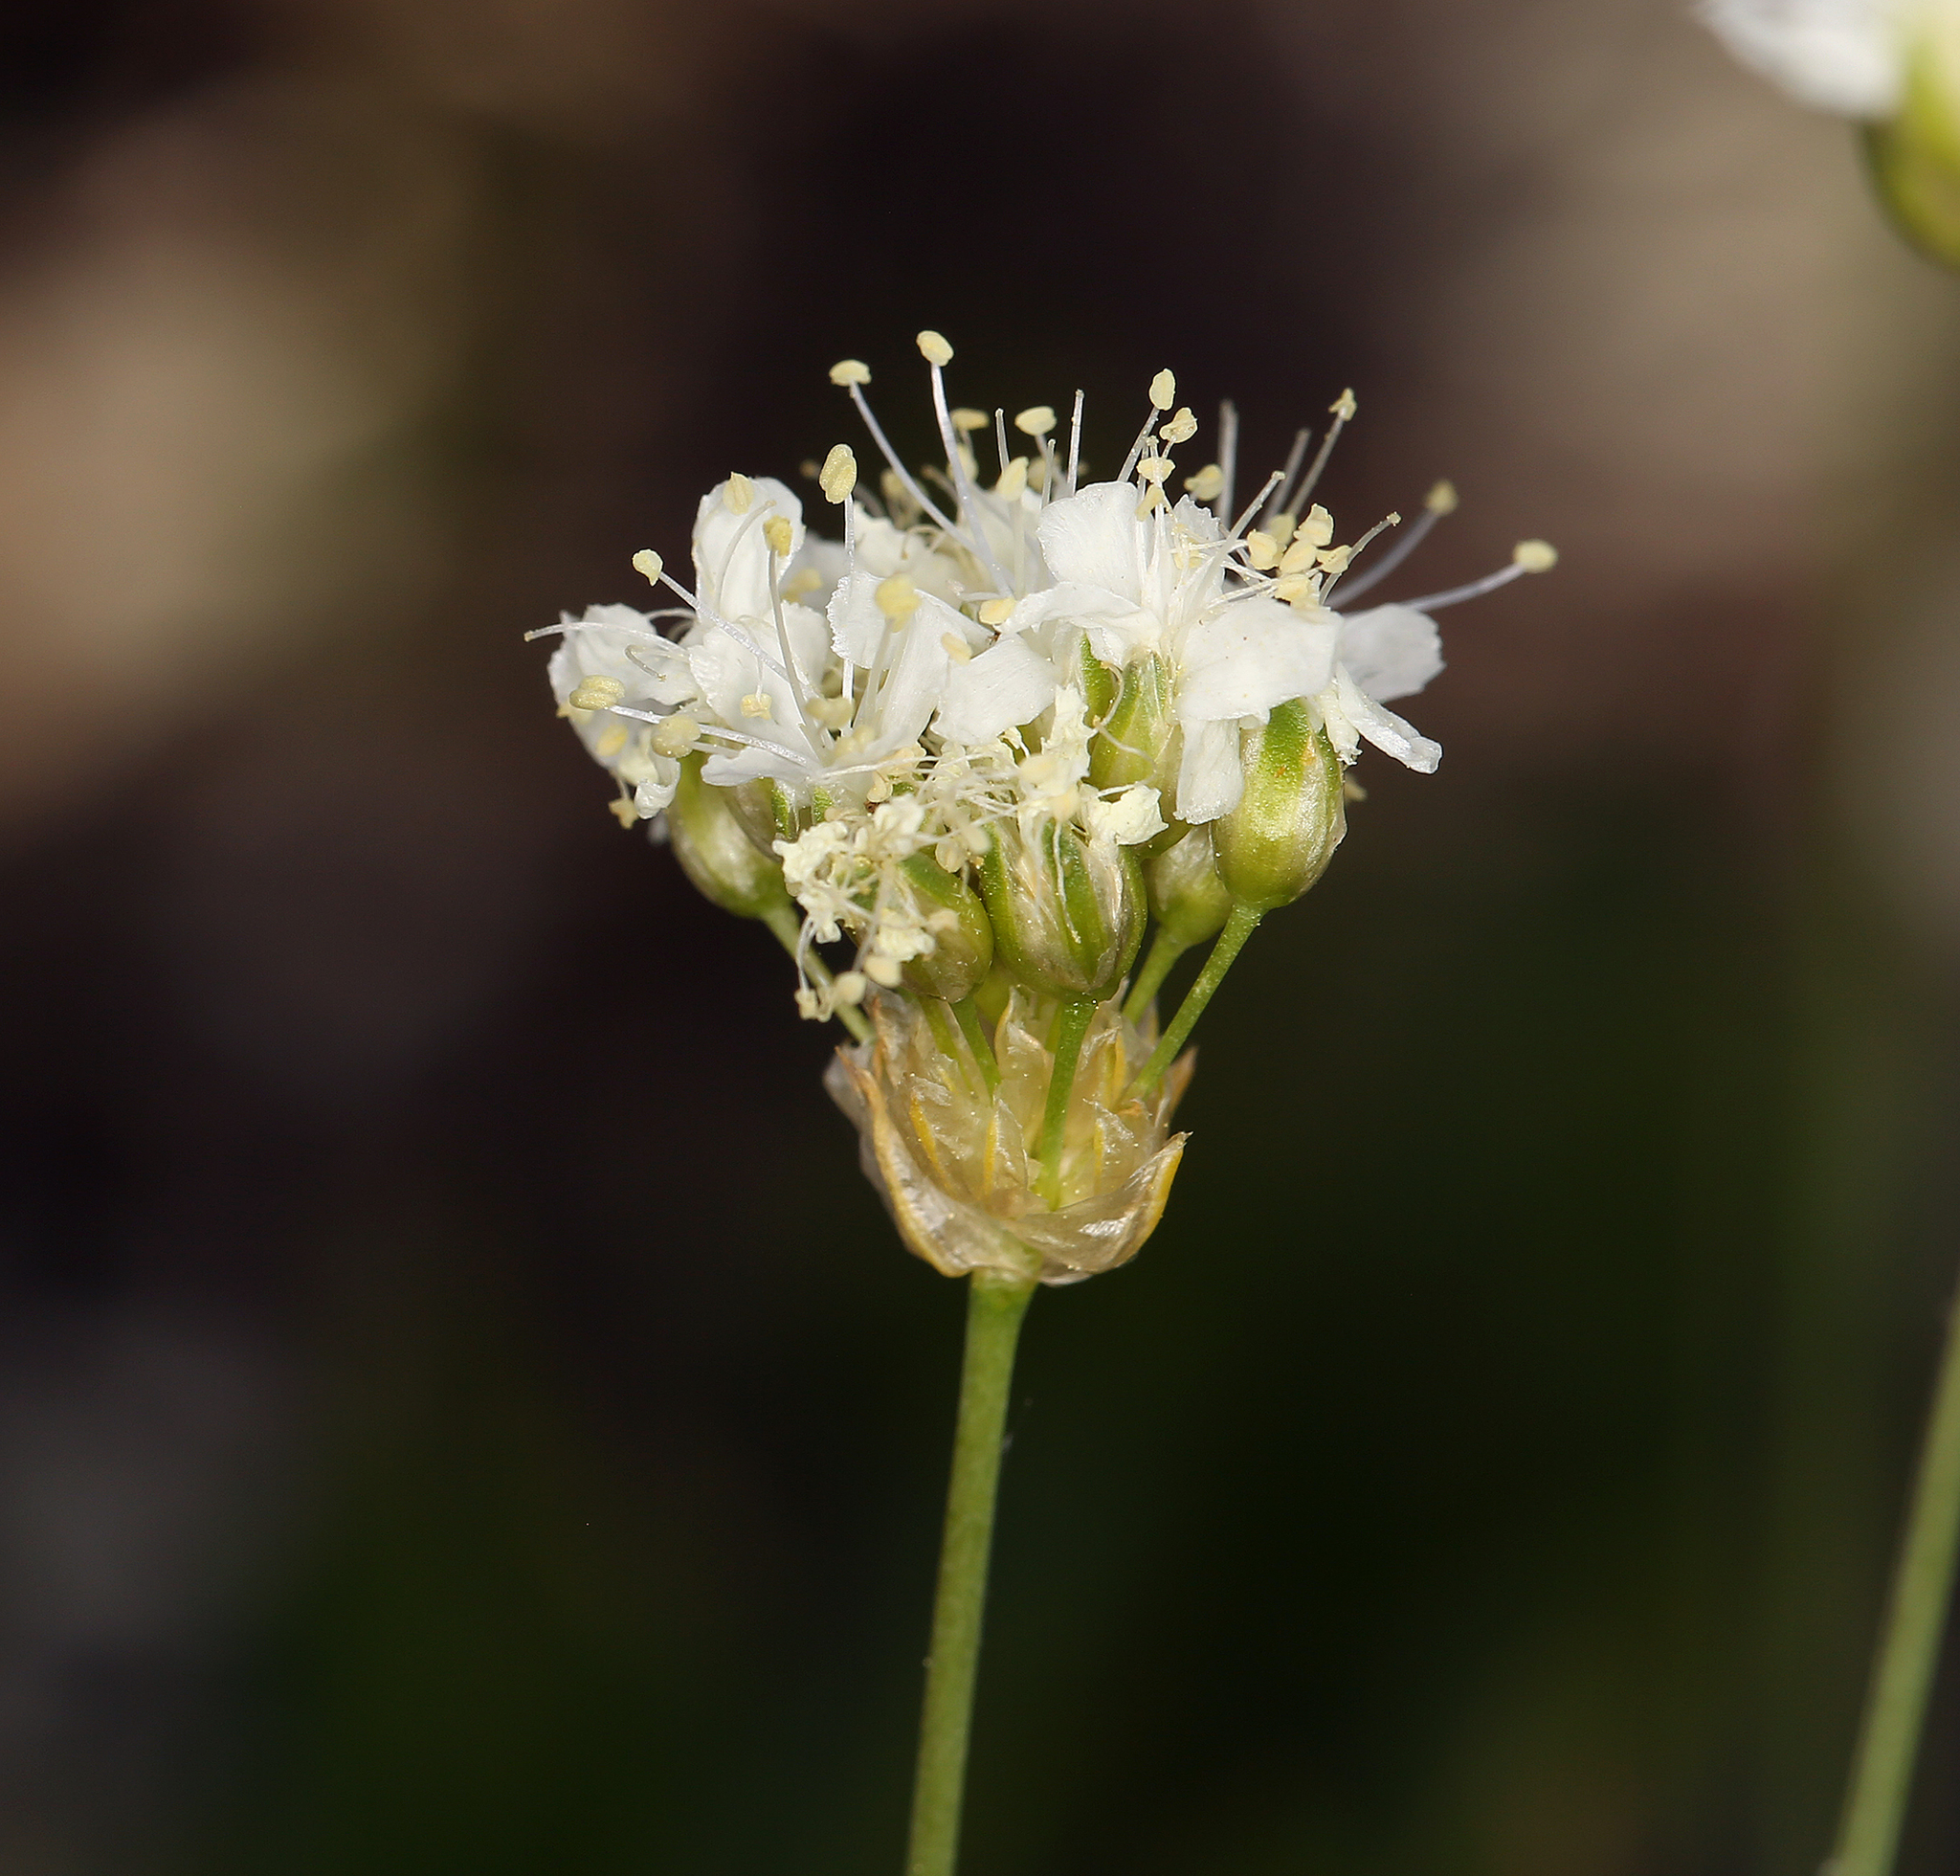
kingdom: Plantae
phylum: Tracheophyta
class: Magnoliopsida
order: Caryophyllales
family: Caryophyllaceae
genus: Eremogone
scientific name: Eremogone congesta
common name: Ballhead sandwort
